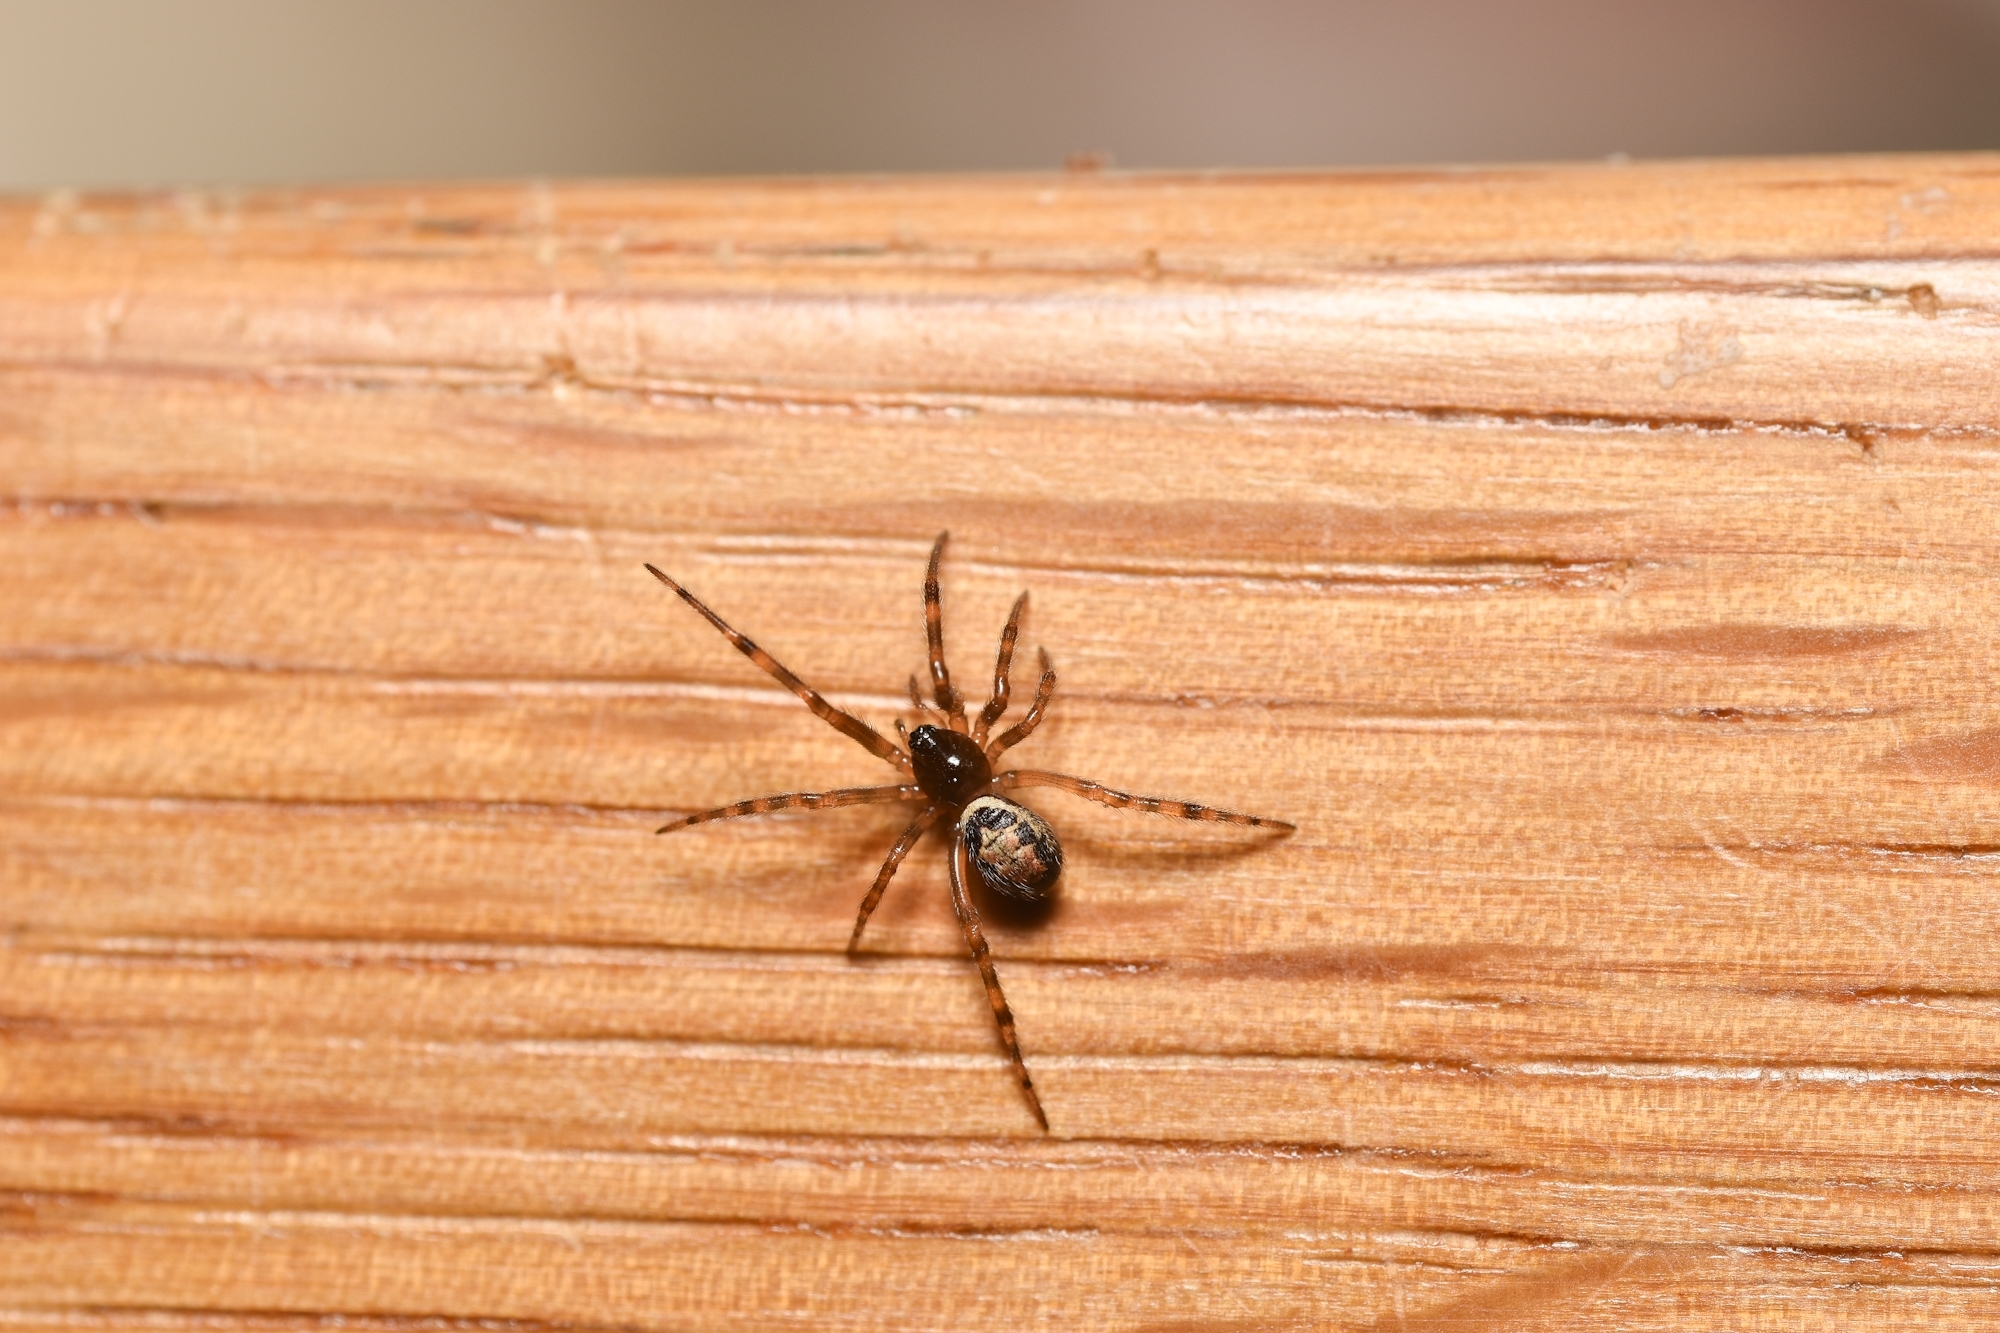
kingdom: Animalia
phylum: Arthropoda
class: Arachnida
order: Araneae
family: Theridiidae
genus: Steatoda
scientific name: Steatoda nobilis
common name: Cobweb weaver
